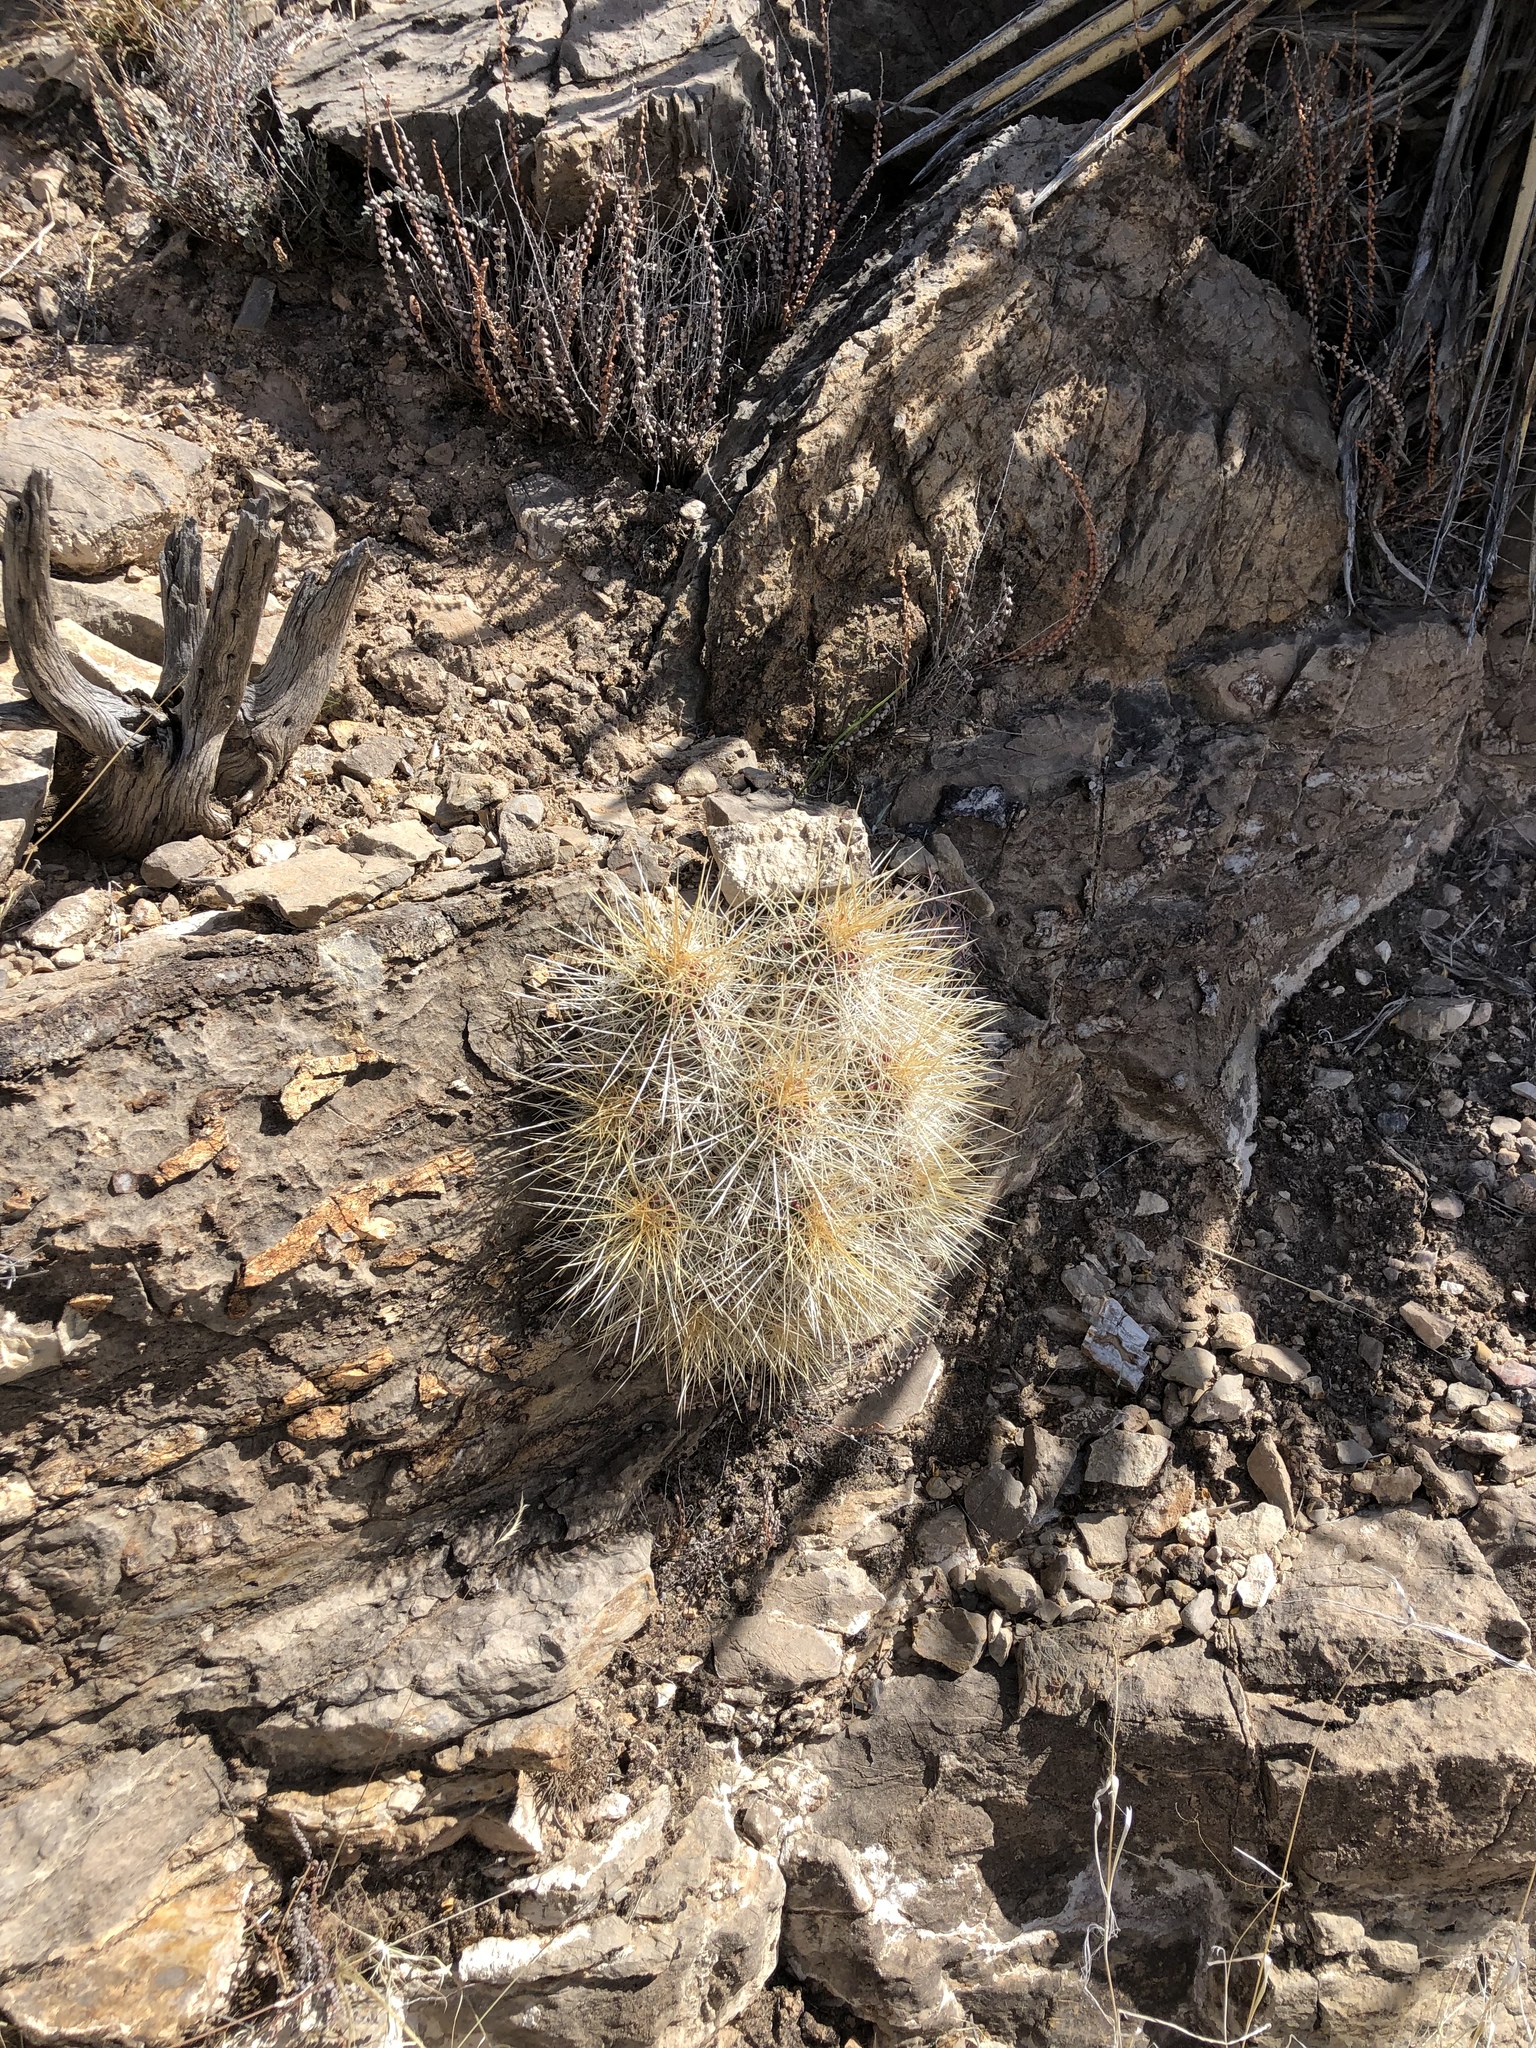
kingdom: Plantae
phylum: Tracheophyta
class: Magnoliopsida
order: Caryophyllales
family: Cactaceae
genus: Echinocereus
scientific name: Echinocereus stramineus
